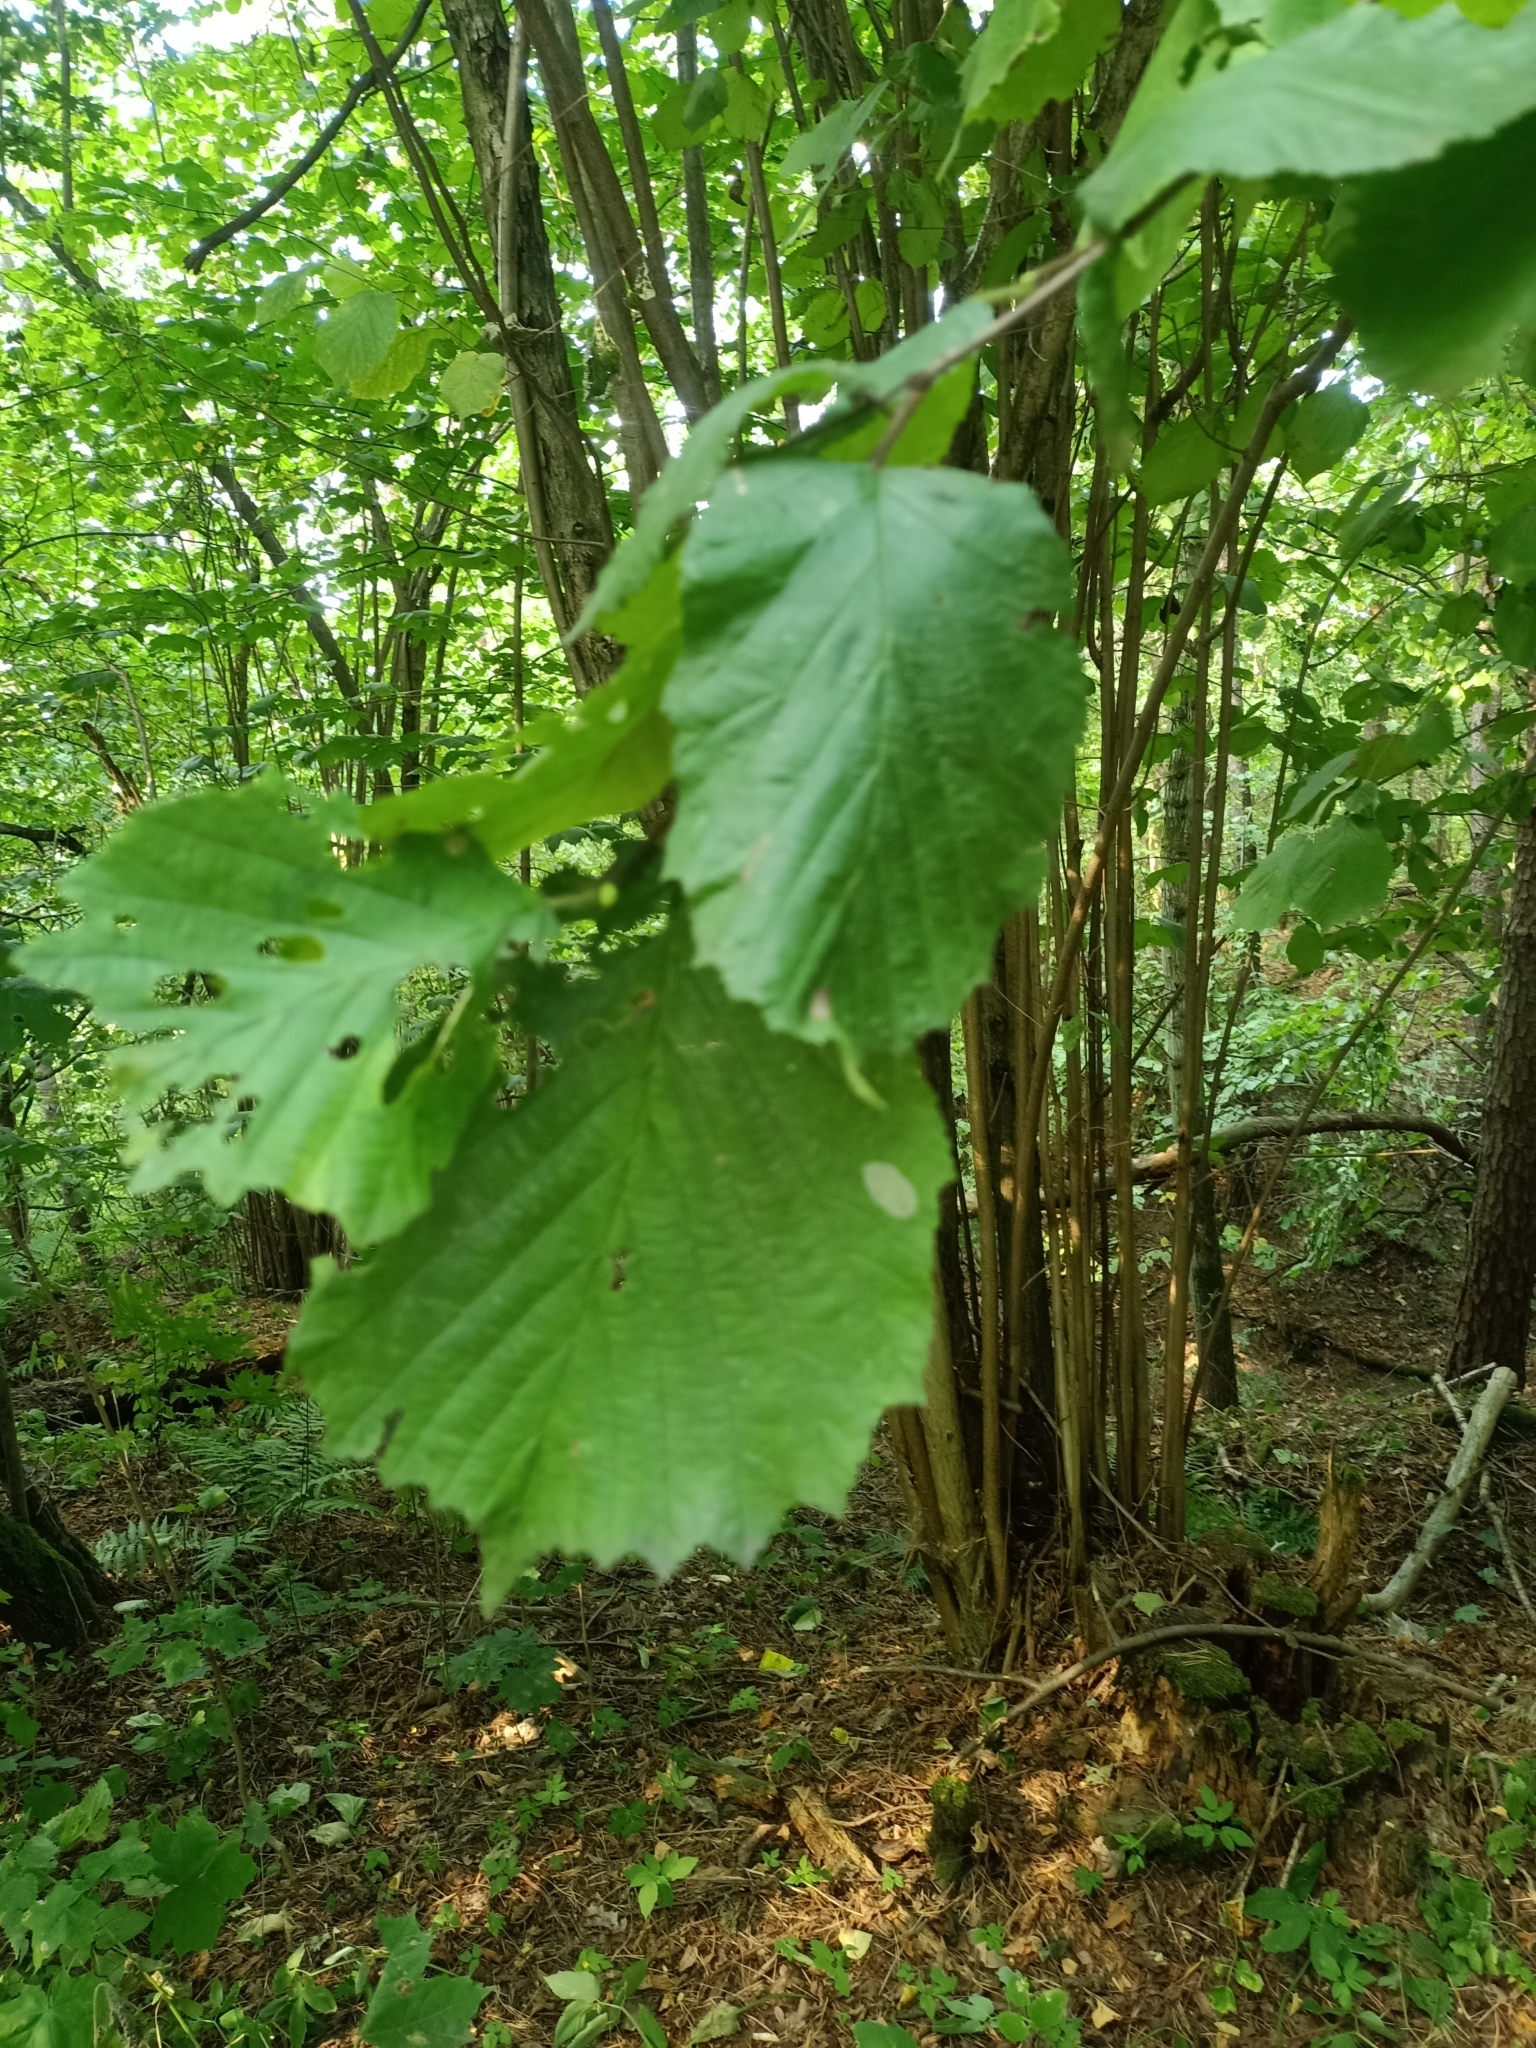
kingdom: Plantae
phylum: Tracheophyta
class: Magnoliopsida
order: Fagales
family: Betulaceae
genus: Corylus
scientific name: Corylus avellana
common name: European hazel
